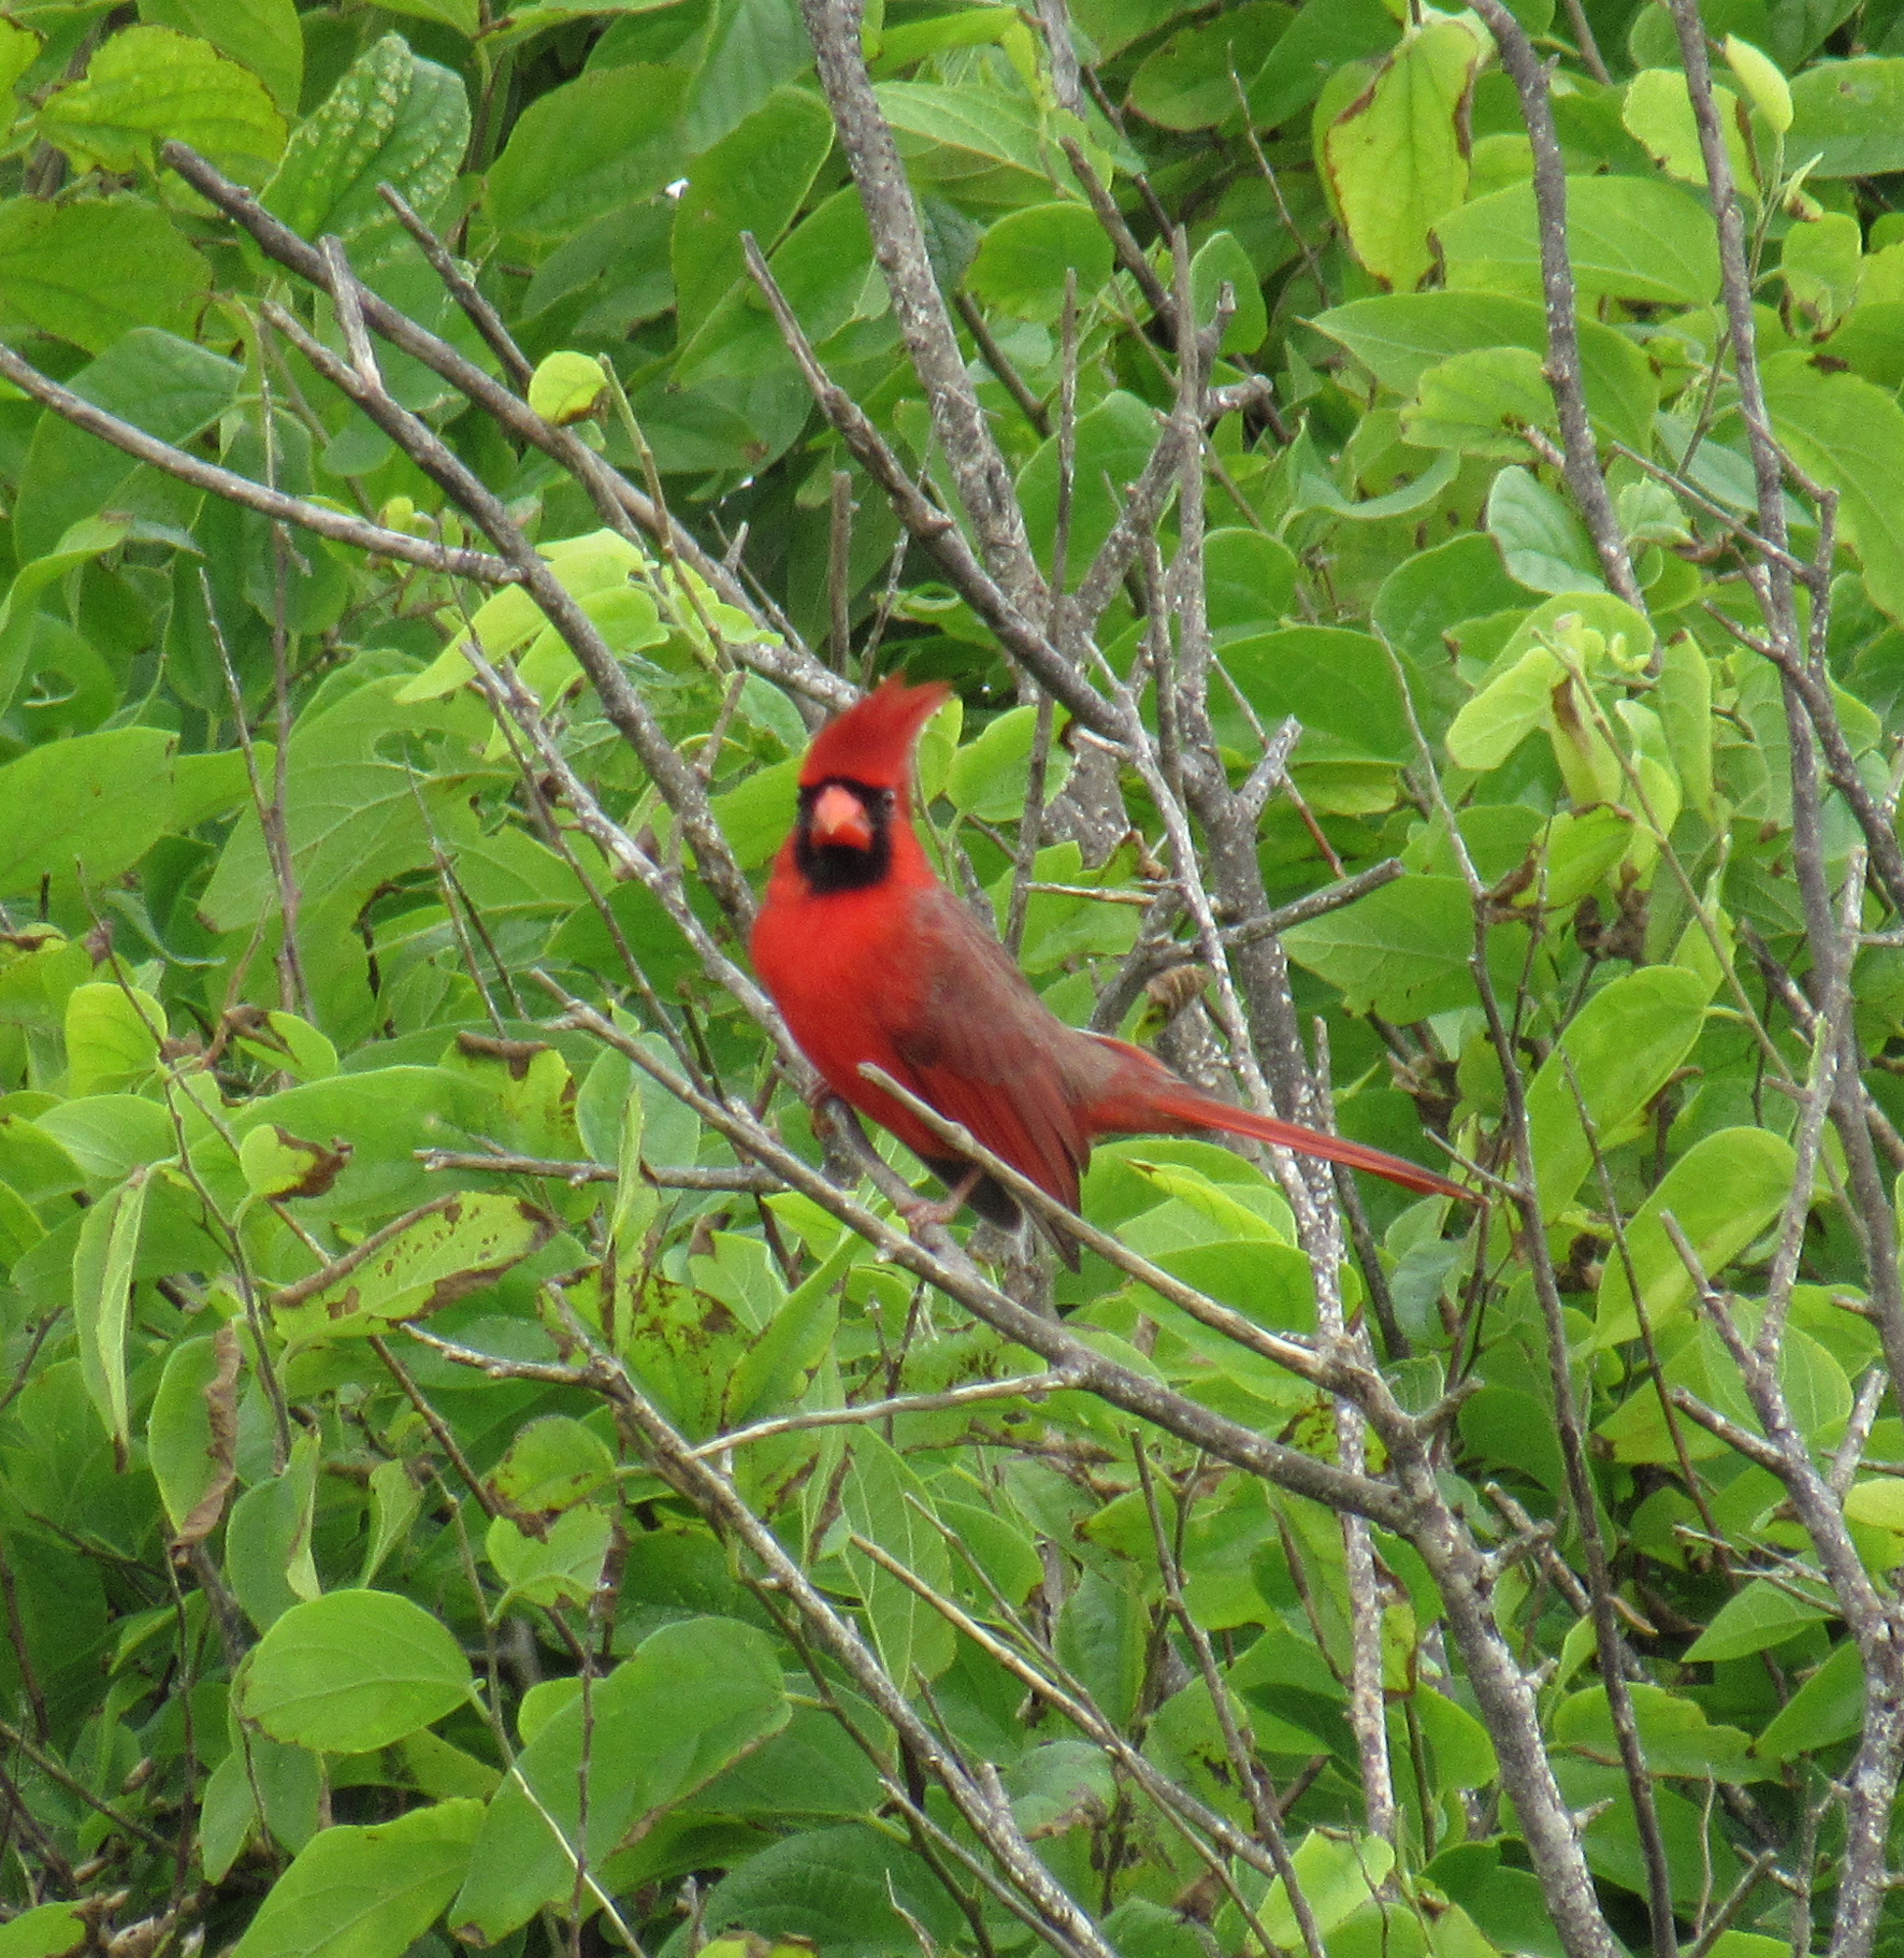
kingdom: Animalia
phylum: Chordata
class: Aves
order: Passeriformes
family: Cardinalidae
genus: Cardinalis
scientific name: Cardinalis cardinalis
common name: Northern cardinal
